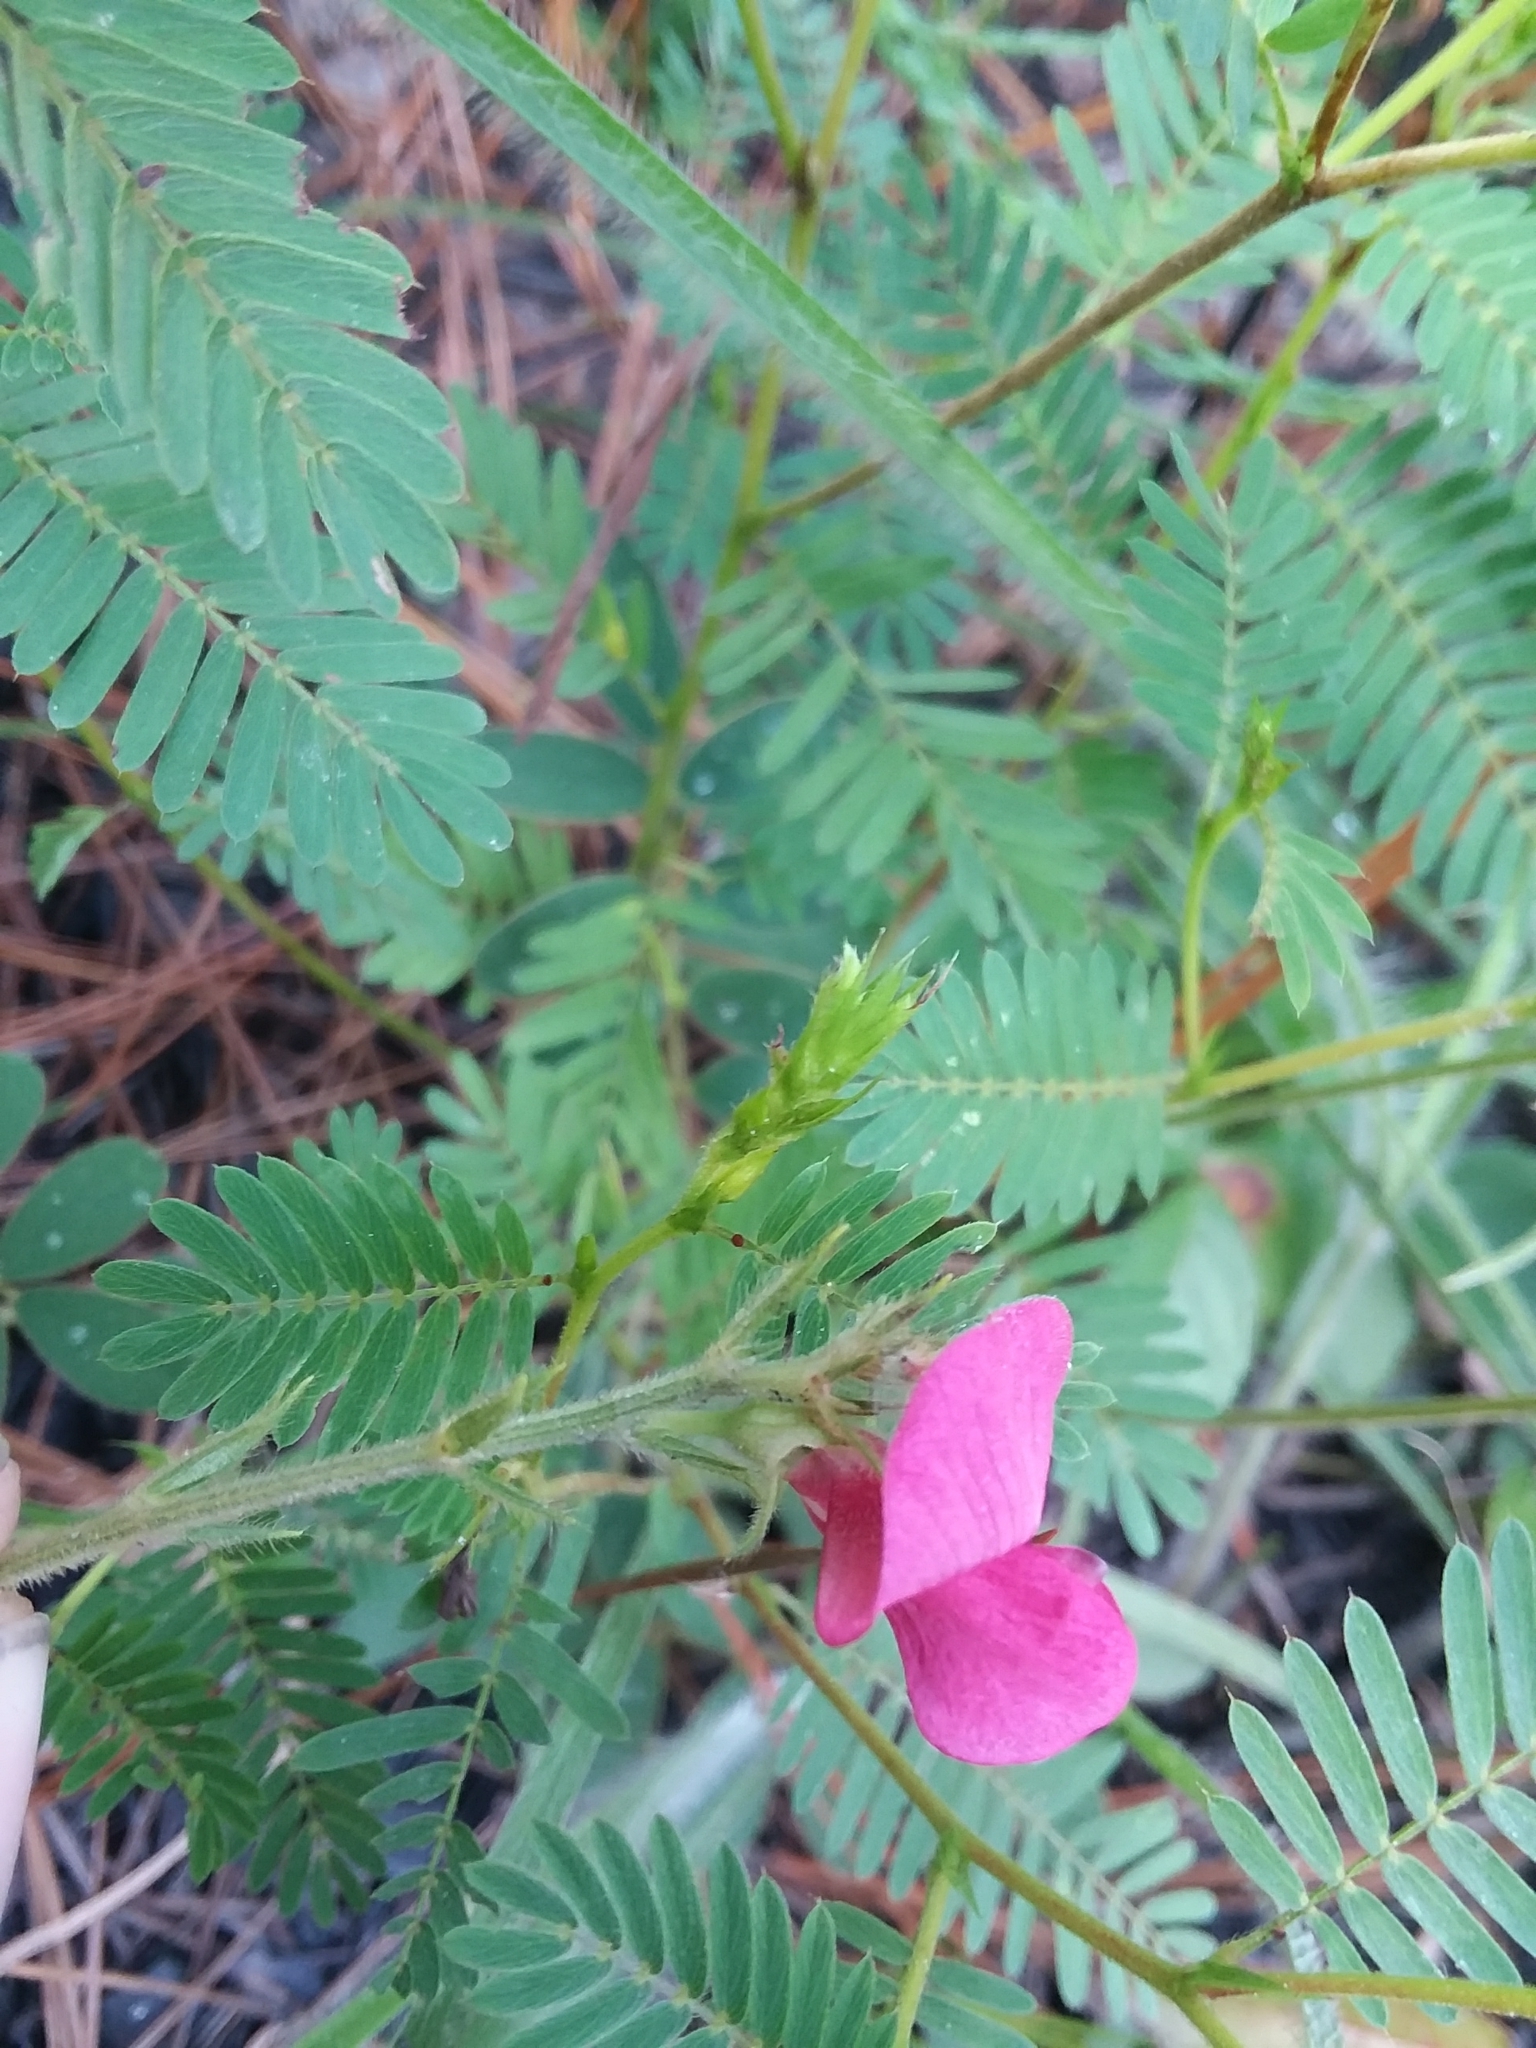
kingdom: Plantae
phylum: Tracheophyta
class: Magnoliopsida
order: Fabales
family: Fabaceae
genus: Tephrosia
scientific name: Tephrosia spicata
